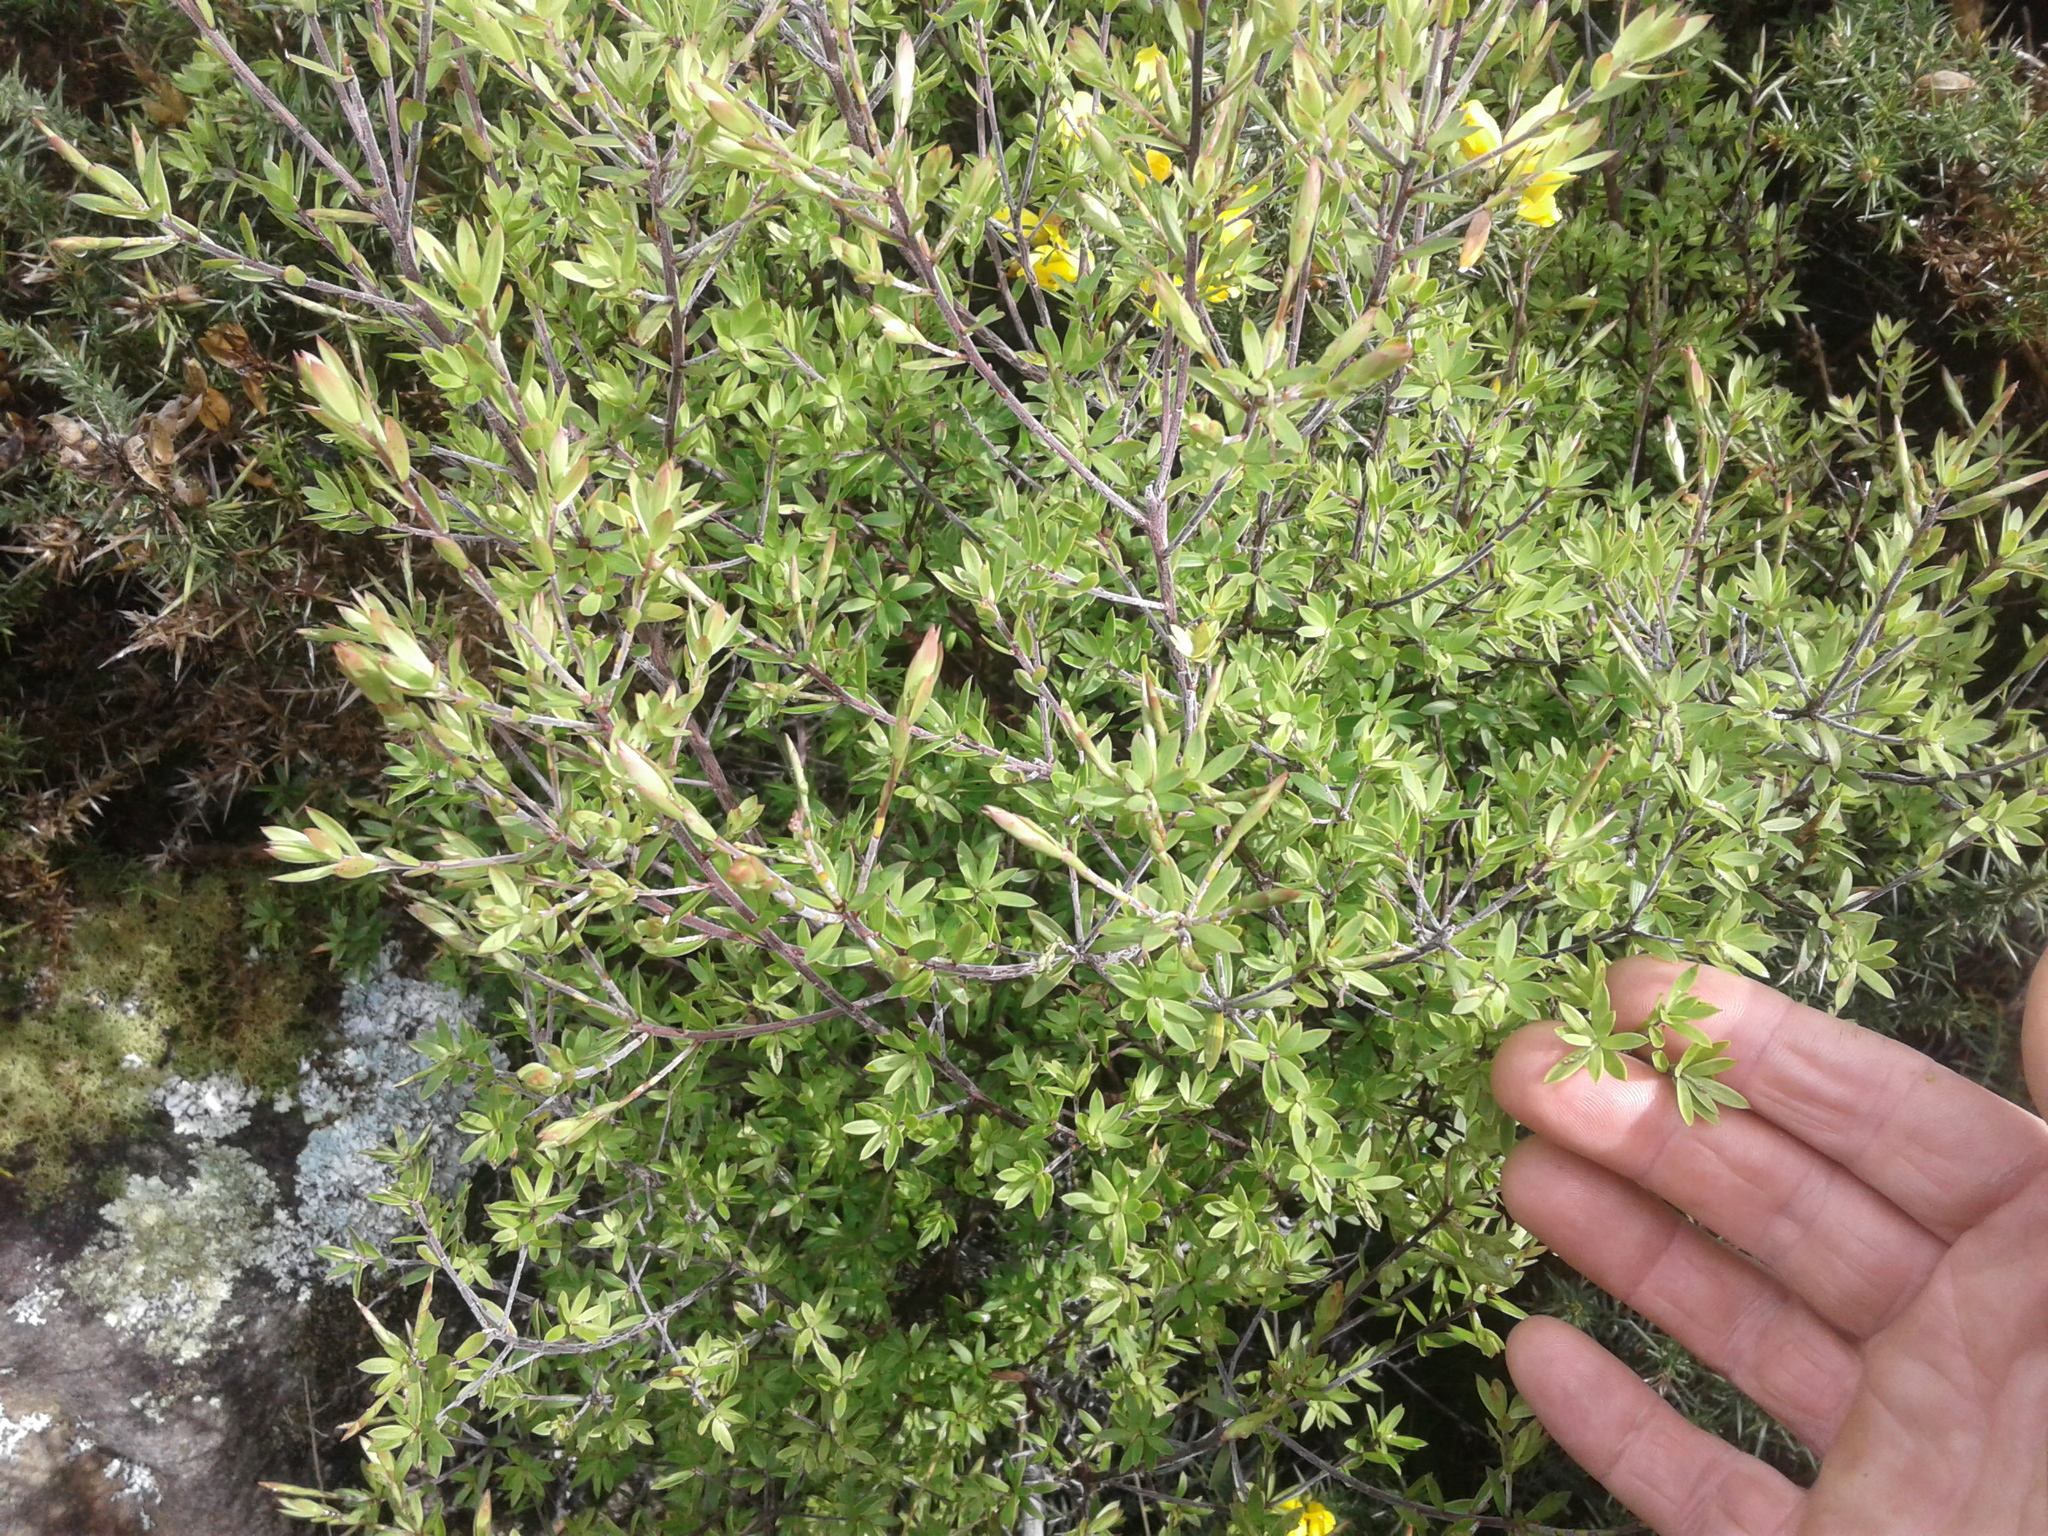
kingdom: Plantae
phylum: Tracheophyta
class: Magnoliopsida
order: Ericales
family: Ericaceae
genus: Leucopogon
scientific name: Leucopogon fasciculatus
